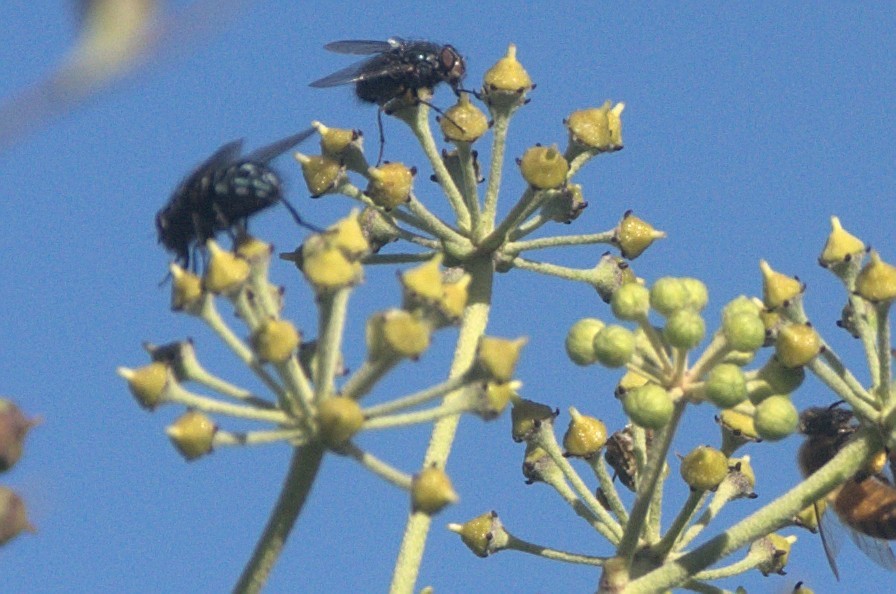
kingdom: Animalia
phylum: Arthropoda
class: Insecta
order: Diptera
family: Calliphoridae
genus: Calliphora
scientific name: Calliphora vicina
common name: Common blow flie
